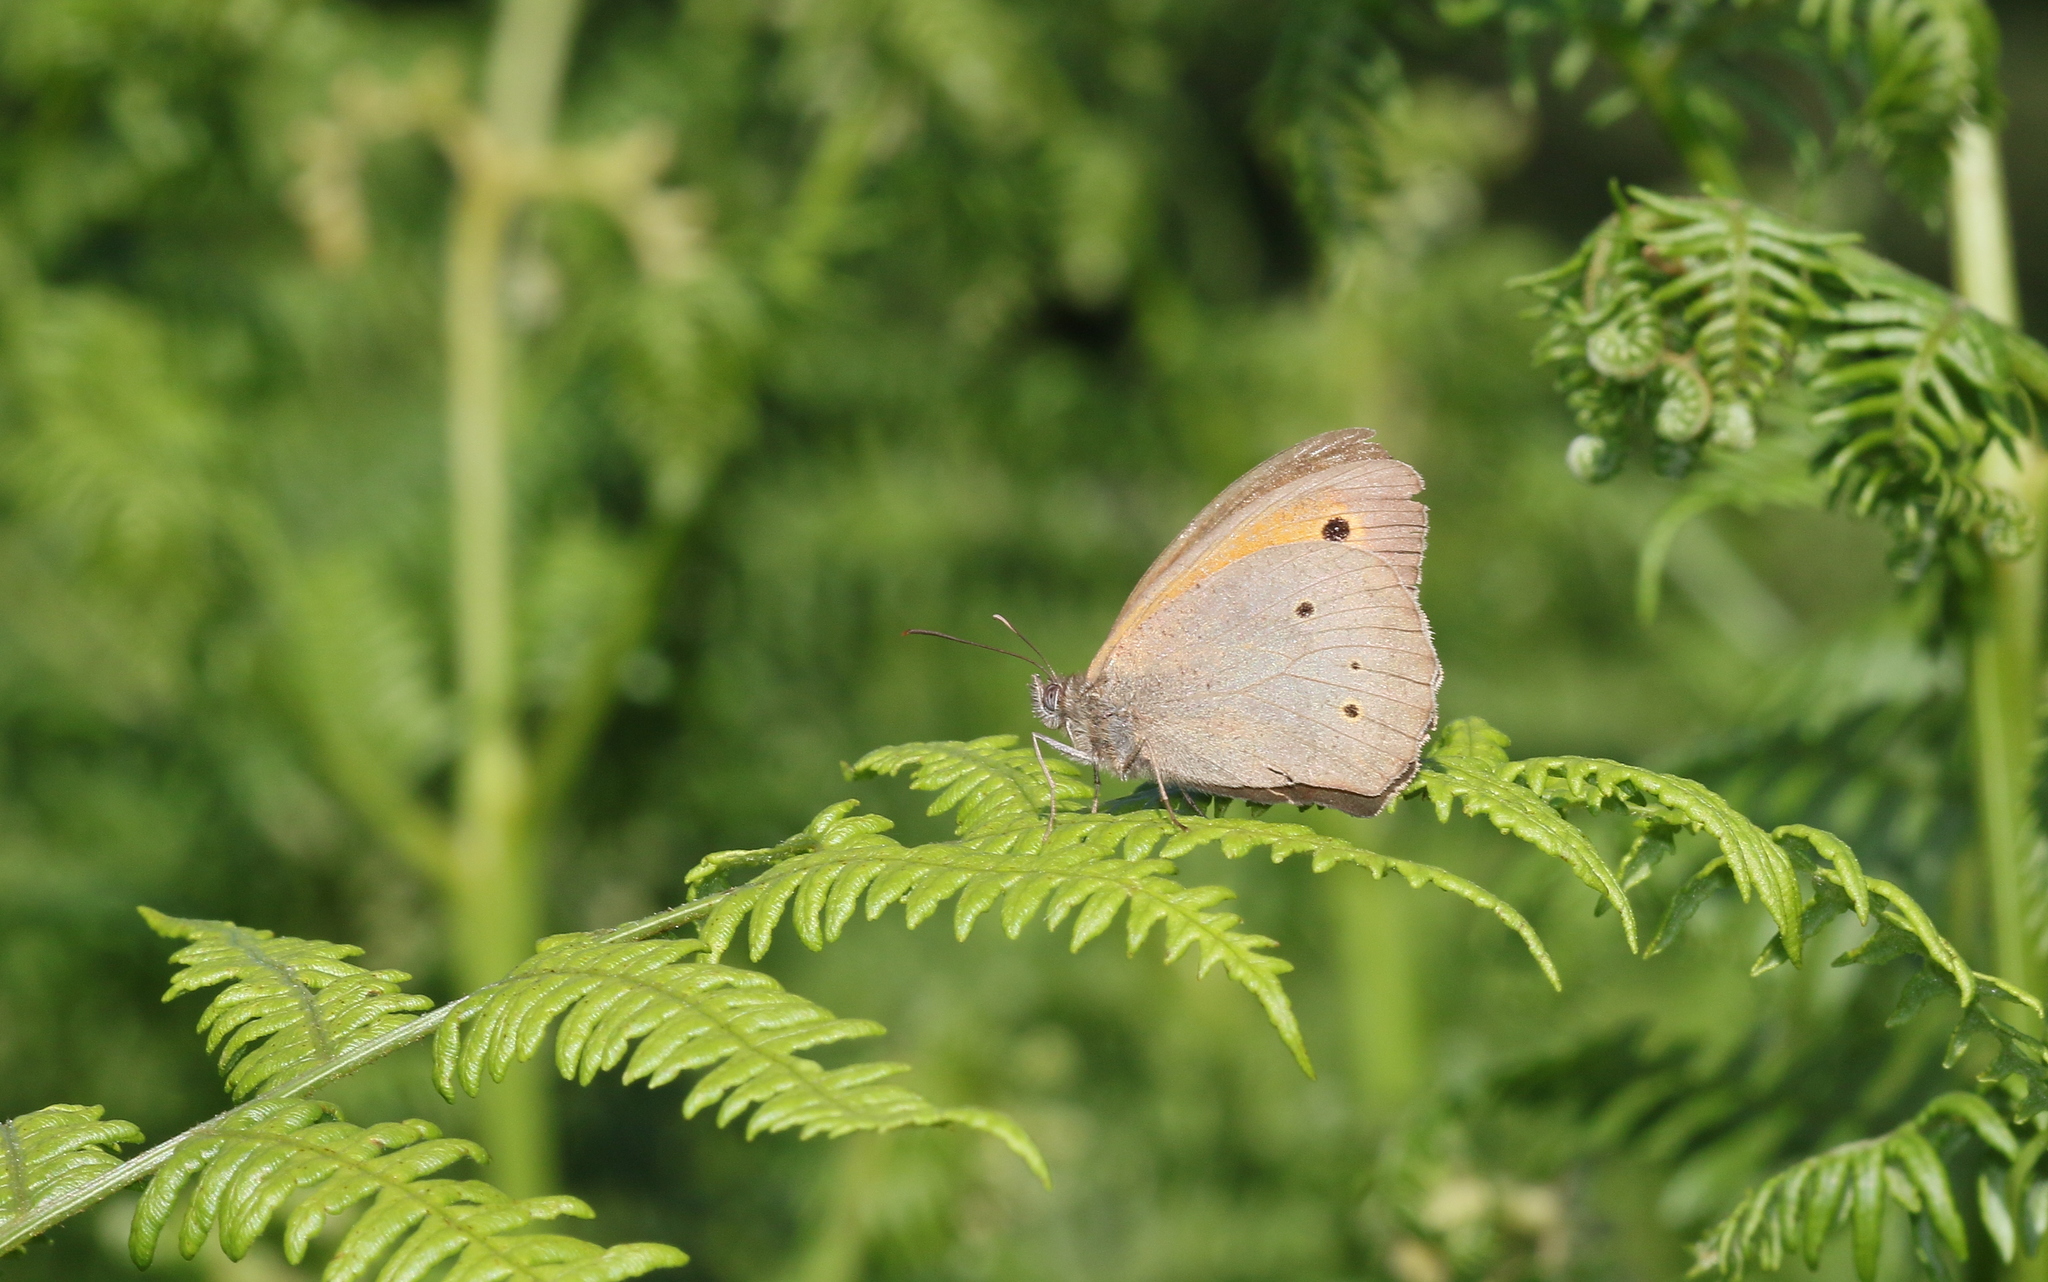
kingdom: Animalia
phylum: Arthropoda
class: Insecta
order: Lepidoptera
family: Nymphalidae
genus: Maniola
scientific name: Maniola jurtina
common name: Meadow brown
